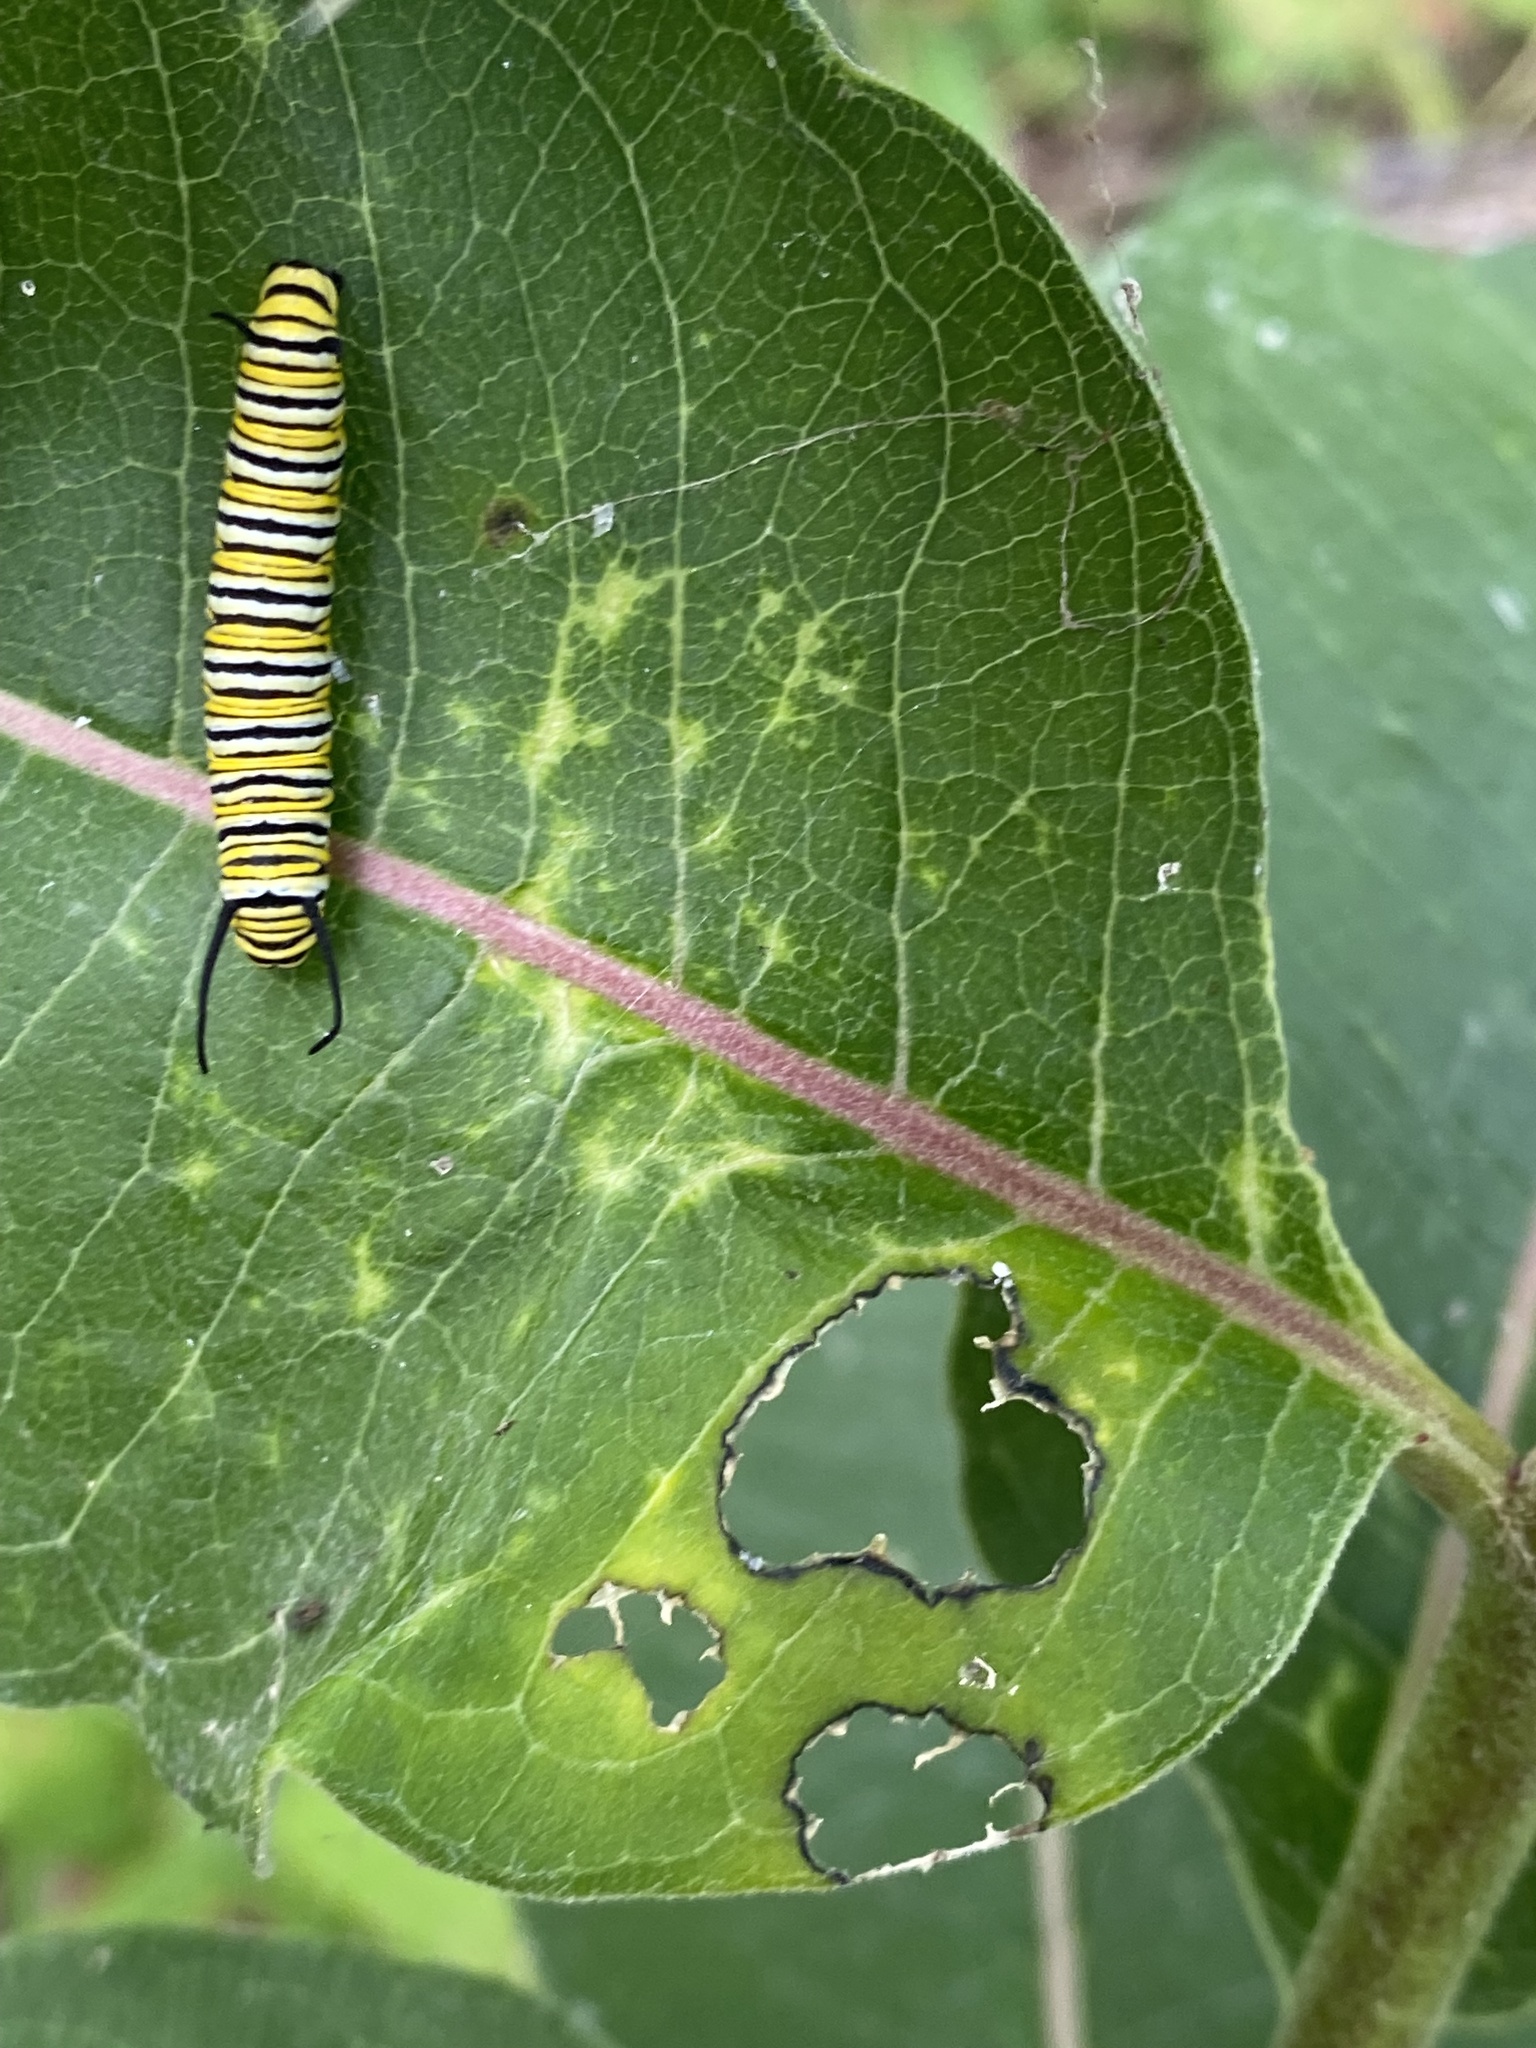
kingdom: Animalia
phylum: Arthropoda
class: Insecta
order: Lepidoptera
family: Nymphalidae
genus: Danaus
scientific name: Danaus plexippus
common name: Monarch
